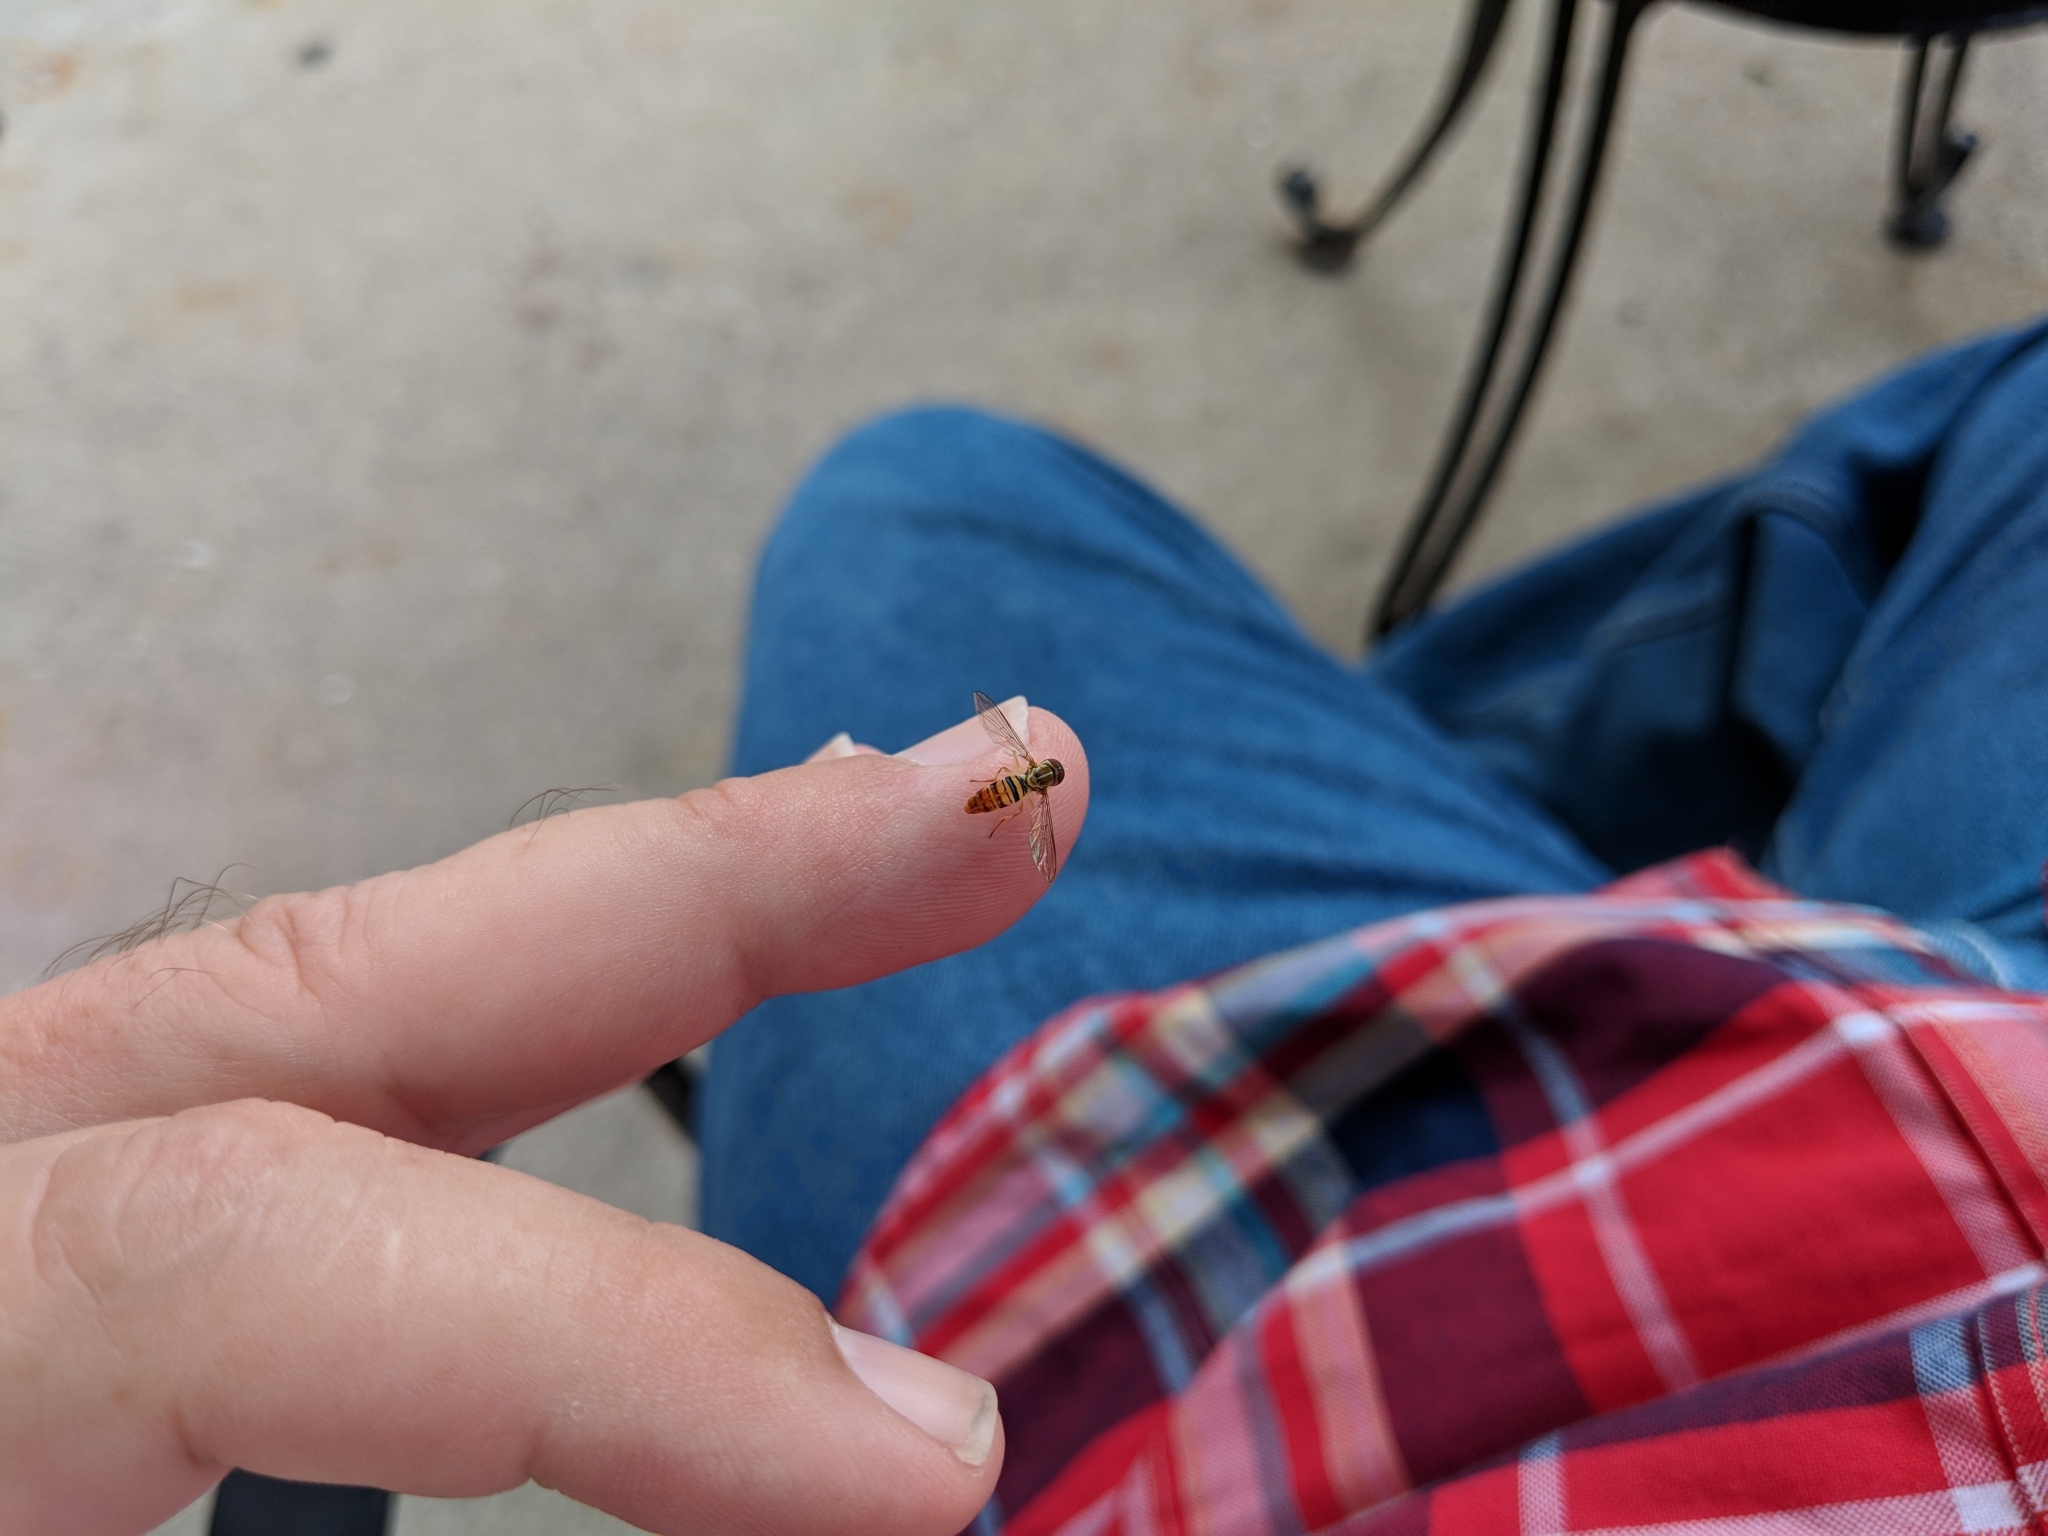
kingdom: Animalia
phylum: Arthropoda
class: Insecta
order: Diptera
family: Syrphidae
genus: Toxomerus
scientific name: Toxomerus politus
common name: Maize calligrapher
